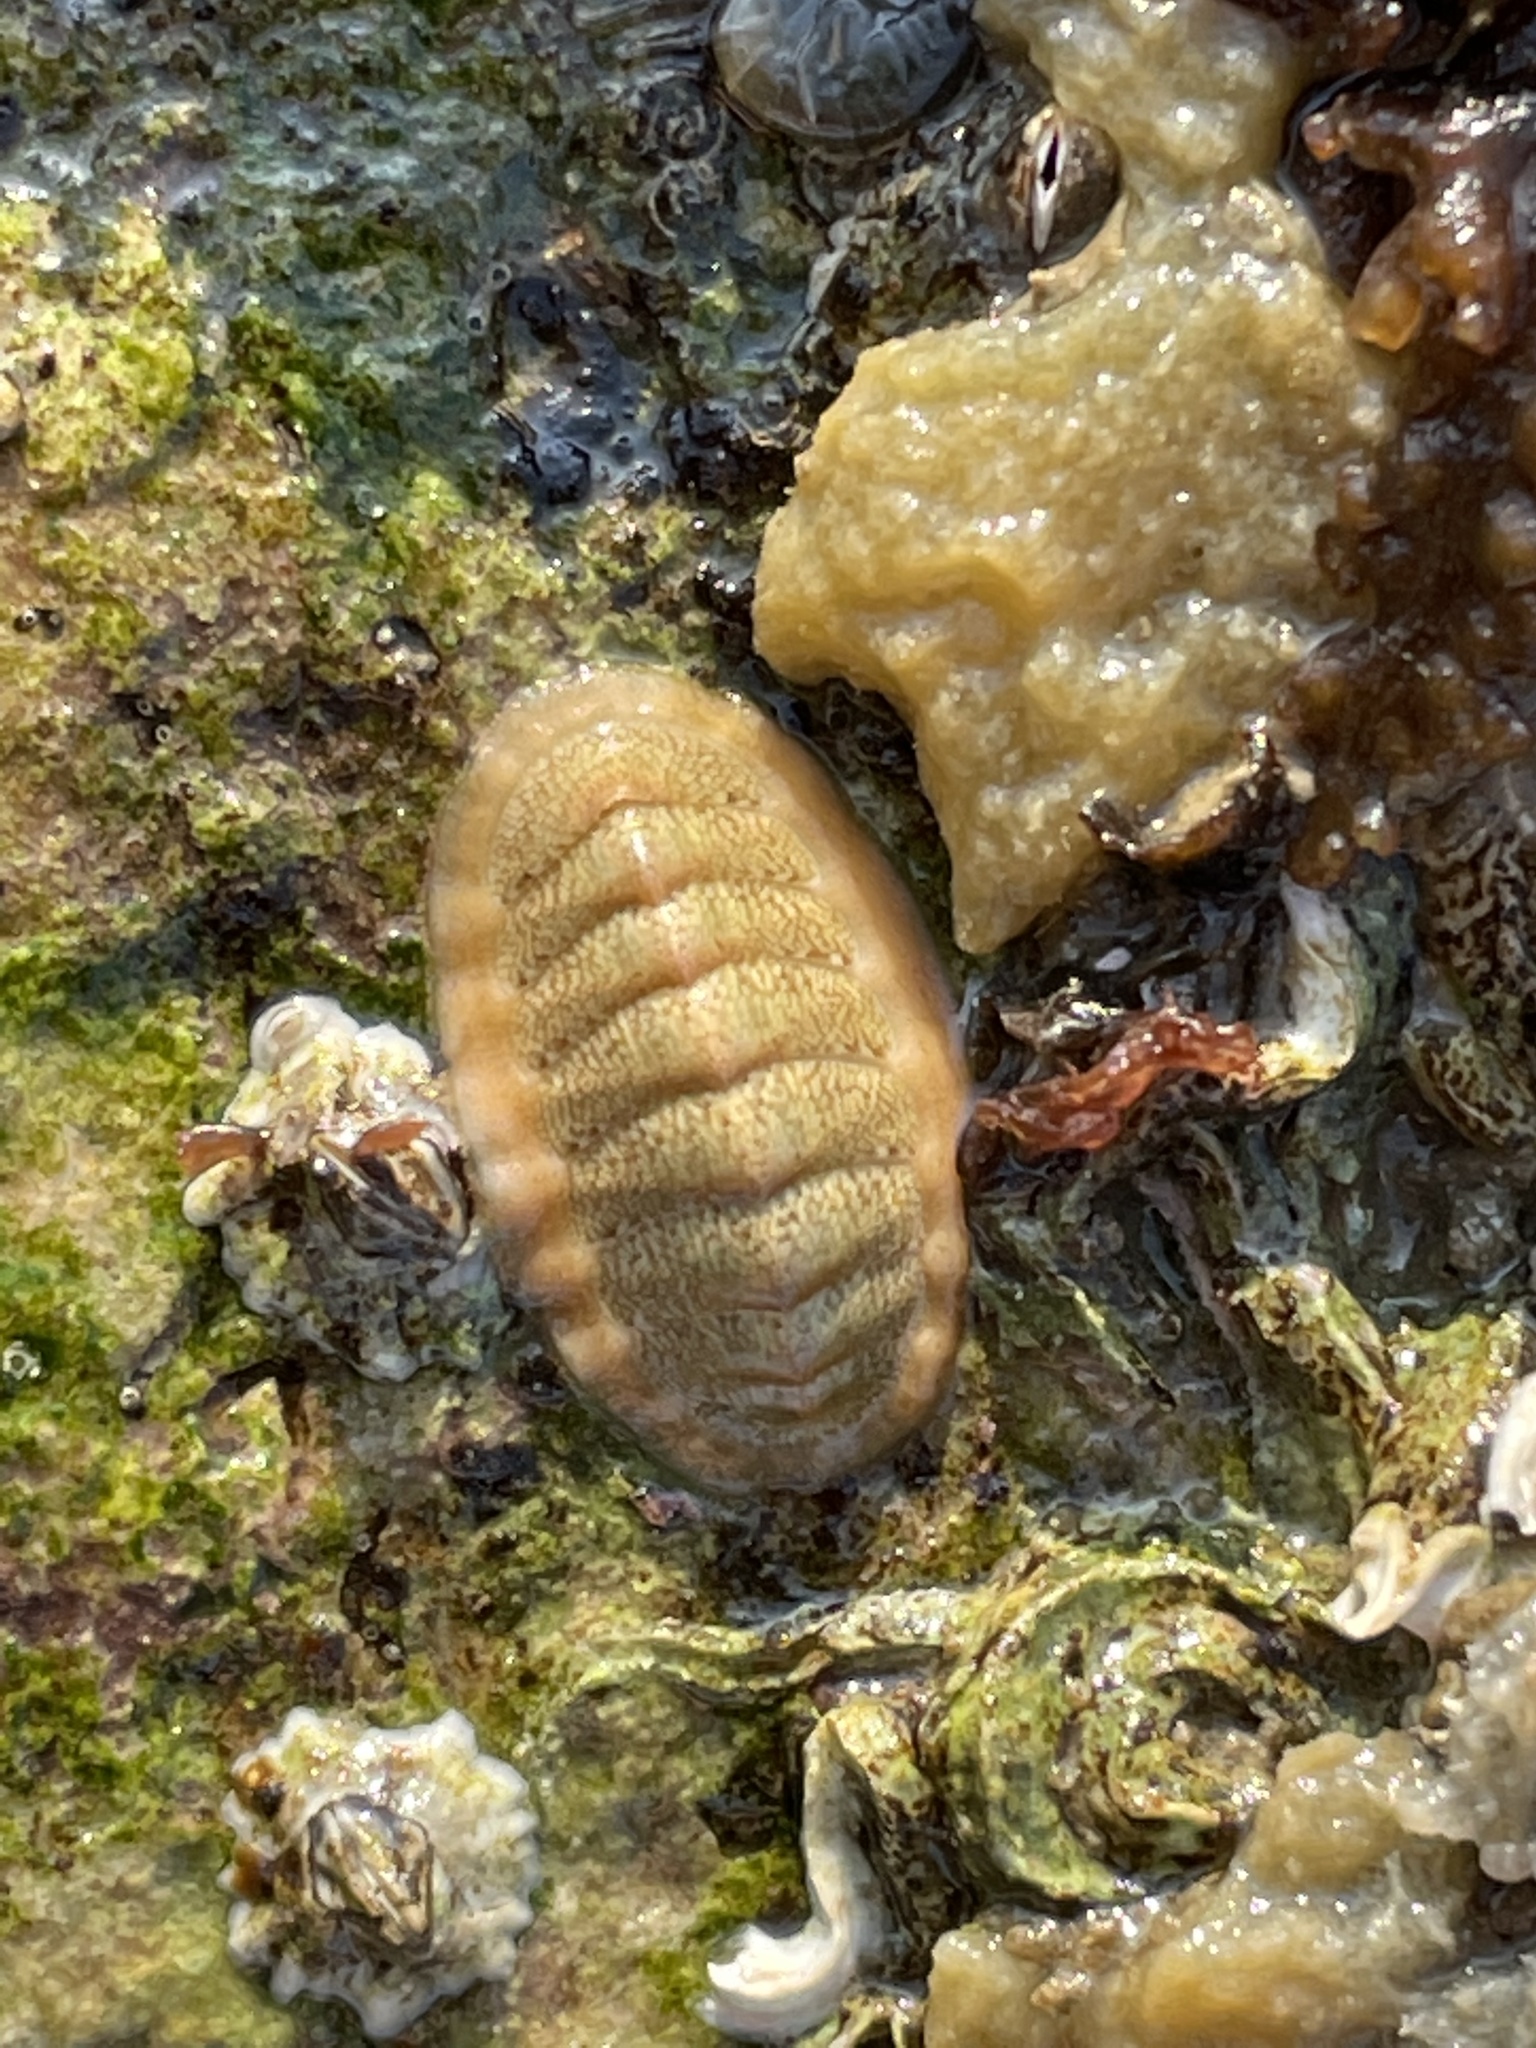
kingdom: Animalia
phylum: Mollusca
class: Polyplacophora
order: Chitonida
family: Tonicellidae
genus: Lepidochitona
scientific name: Lepidochitona cinerea
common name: Cinereous chiton
